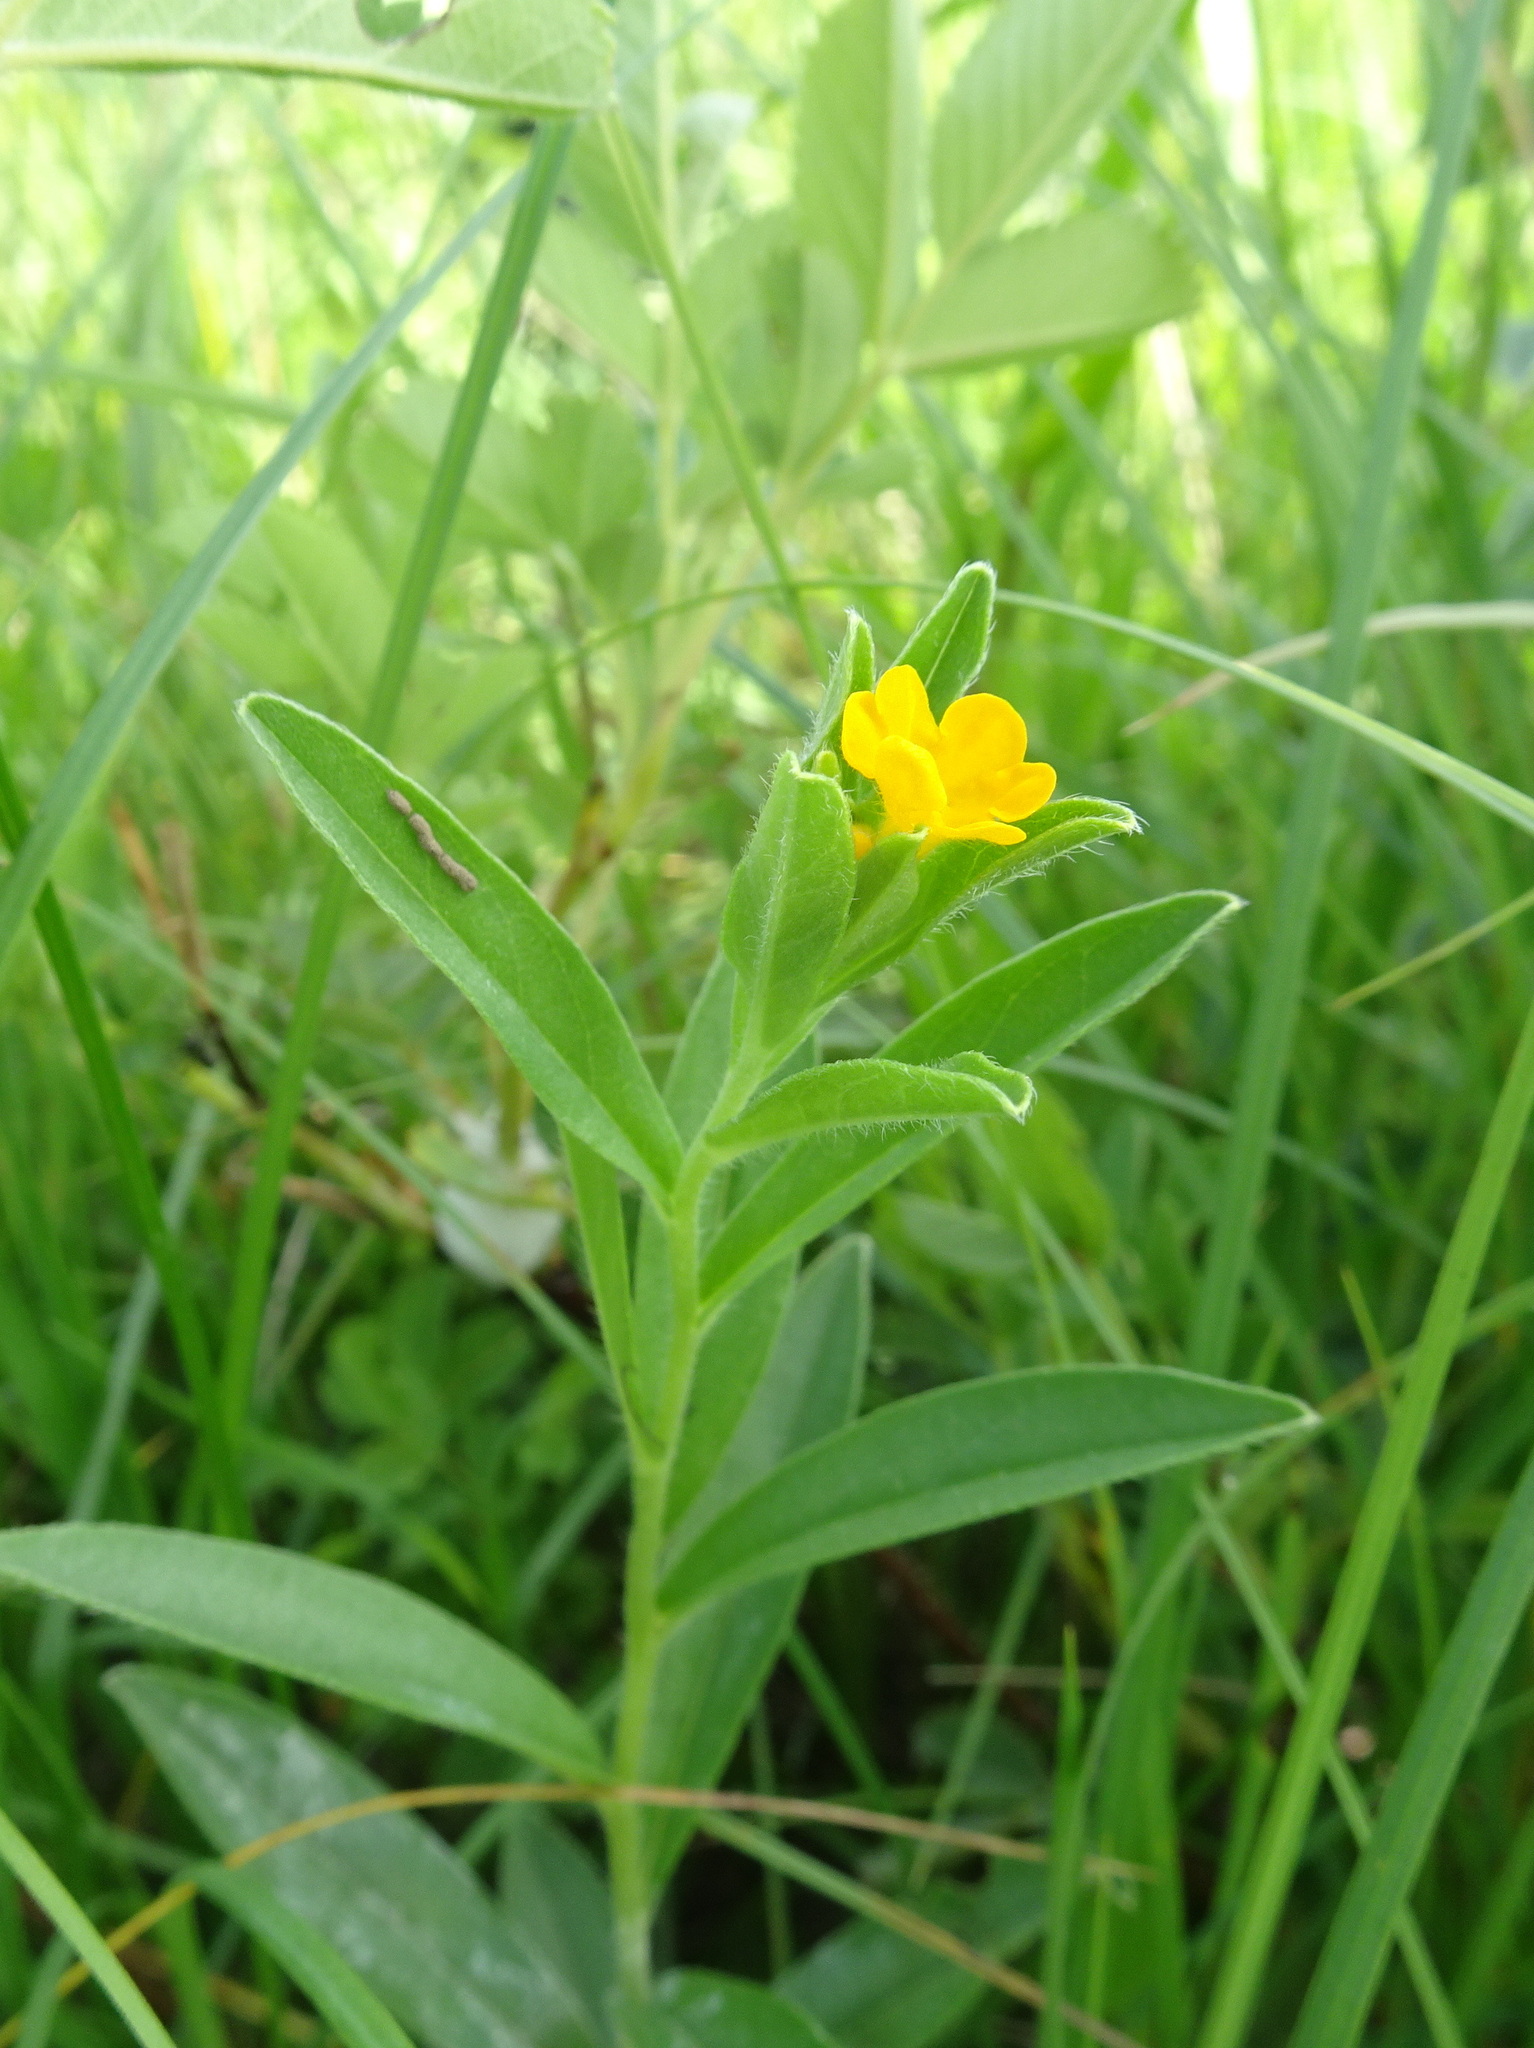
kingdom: Plantae
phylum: Tracheophyta
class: Magnoliopsida
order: Boraginales
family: Boraginaceae
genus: Lithospermum
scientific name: Lithospermum canescens
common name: Hoary puccoon
